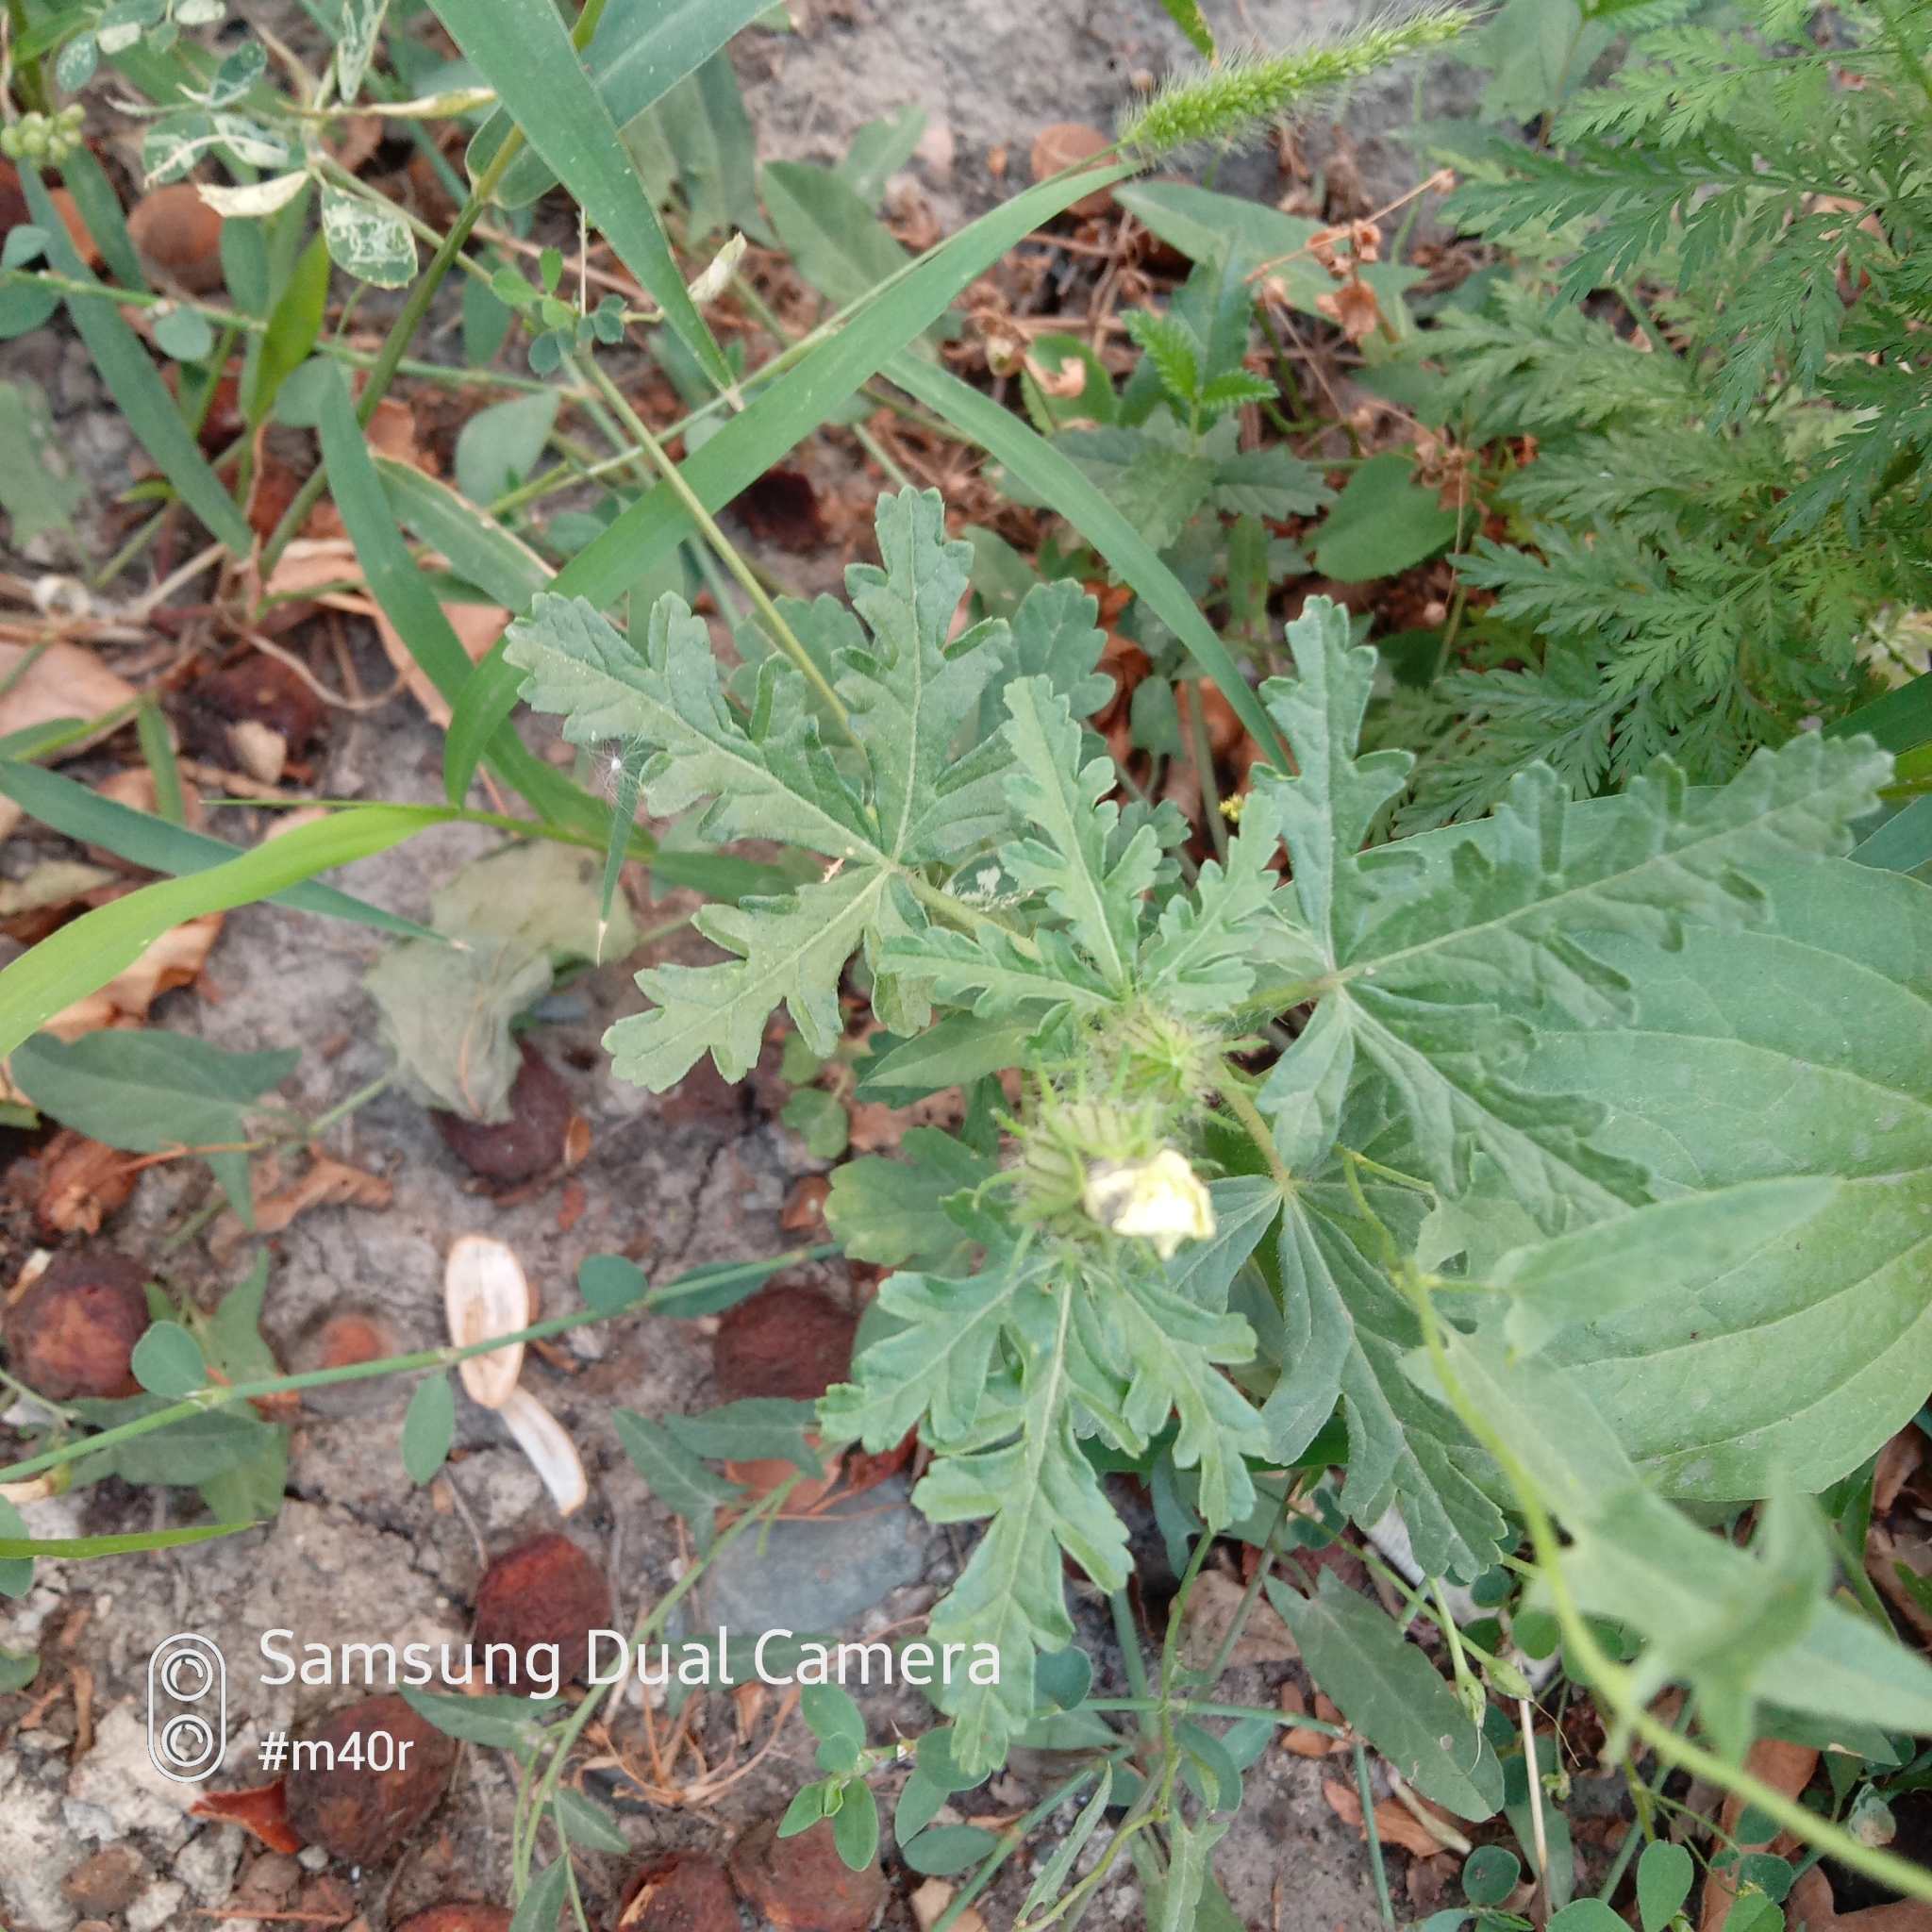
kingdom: Plantae
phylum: Tracheophyta
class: Magnoliopsida
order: Malvales
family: Malvaceae
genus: Hibiscus
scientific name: Hibiscus trionum
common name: Bladder ketmia
